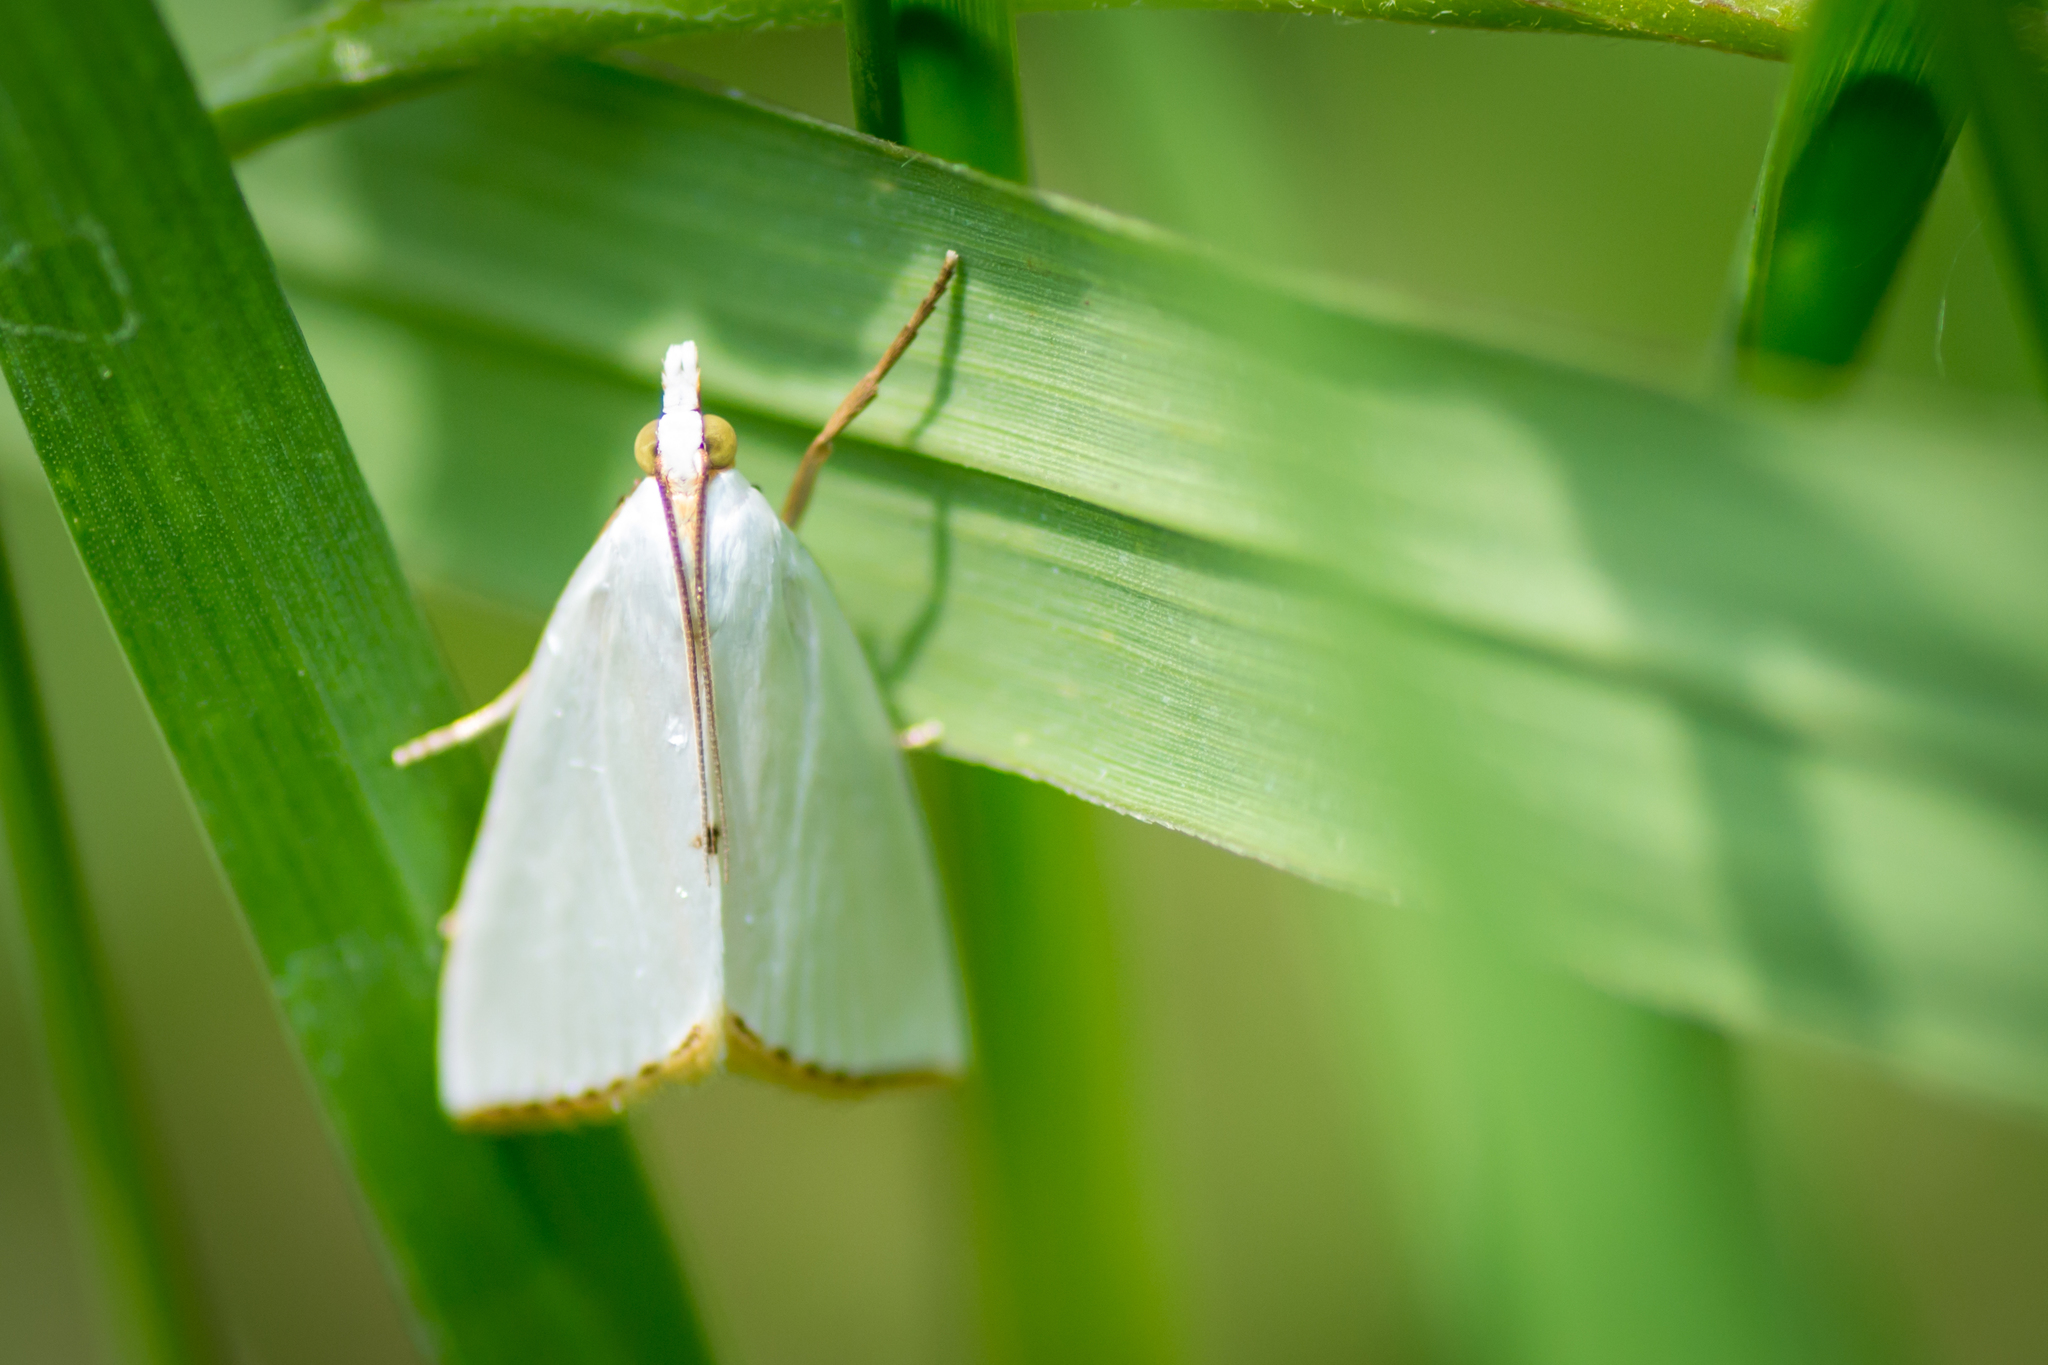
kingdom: Animalia
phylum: Arthropoda
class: Insecta
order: Lepidoptera
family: Crambidae
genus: Argyria
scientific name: Argyria nivalis
